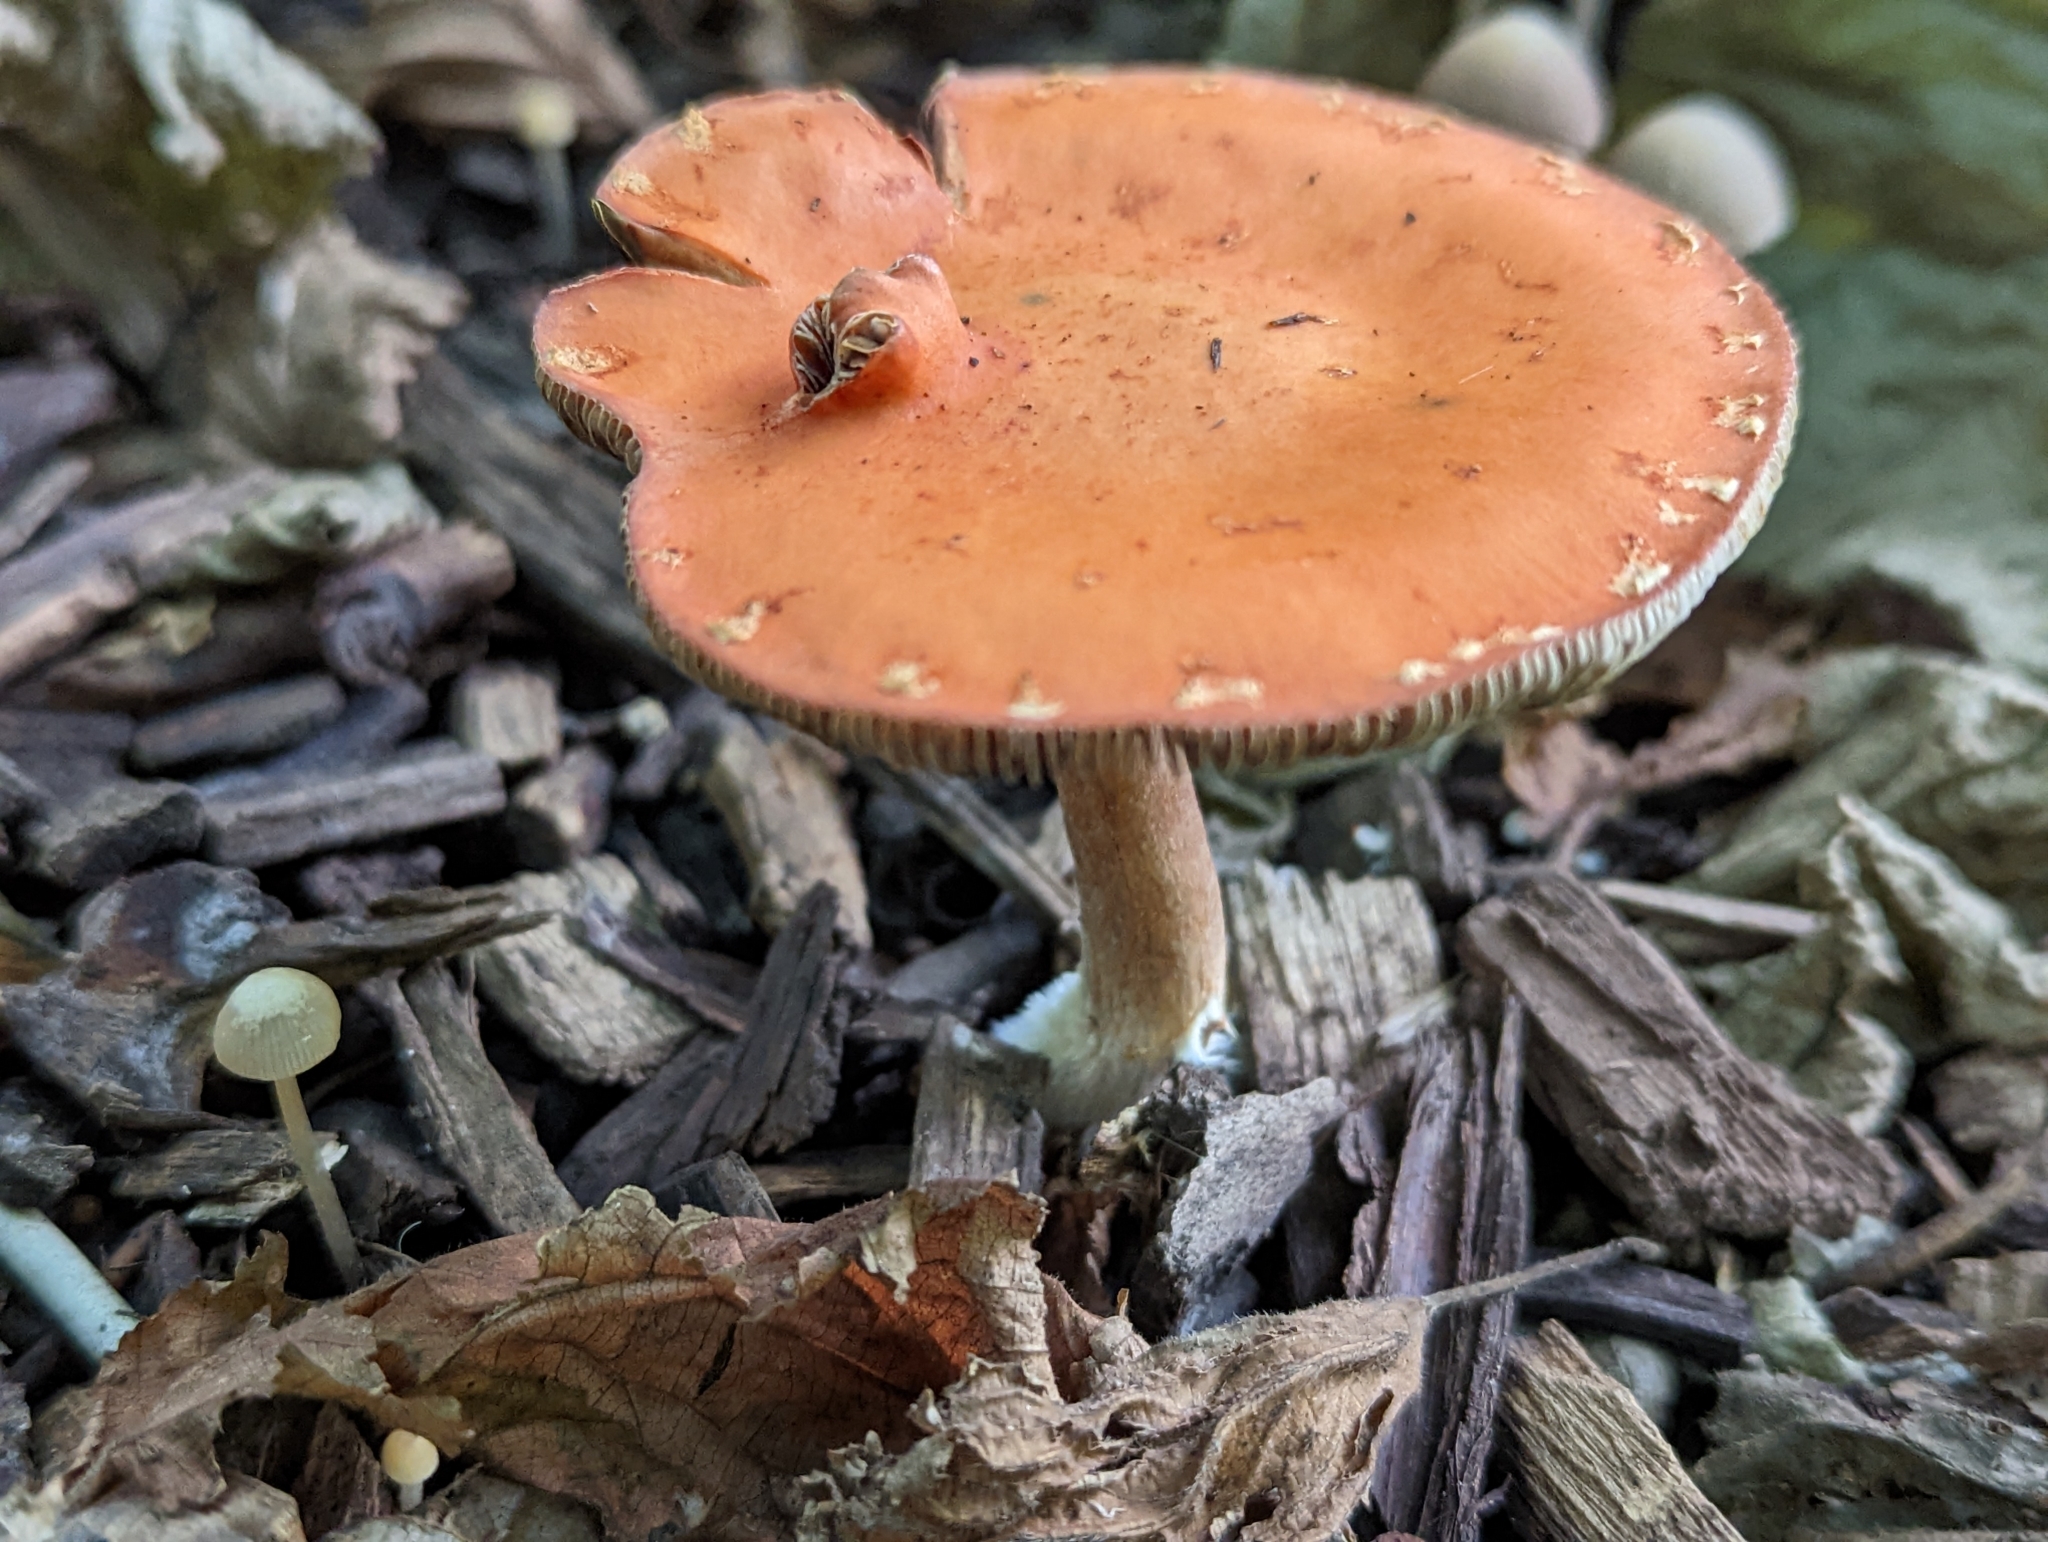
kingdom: Fungi
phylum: Basidiomycota
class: Agaricomycetes
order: Agaricales
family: Strophariaceae
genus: Leratiomyces
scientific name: Leratiomyces ceres
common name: Redlead roundhead
